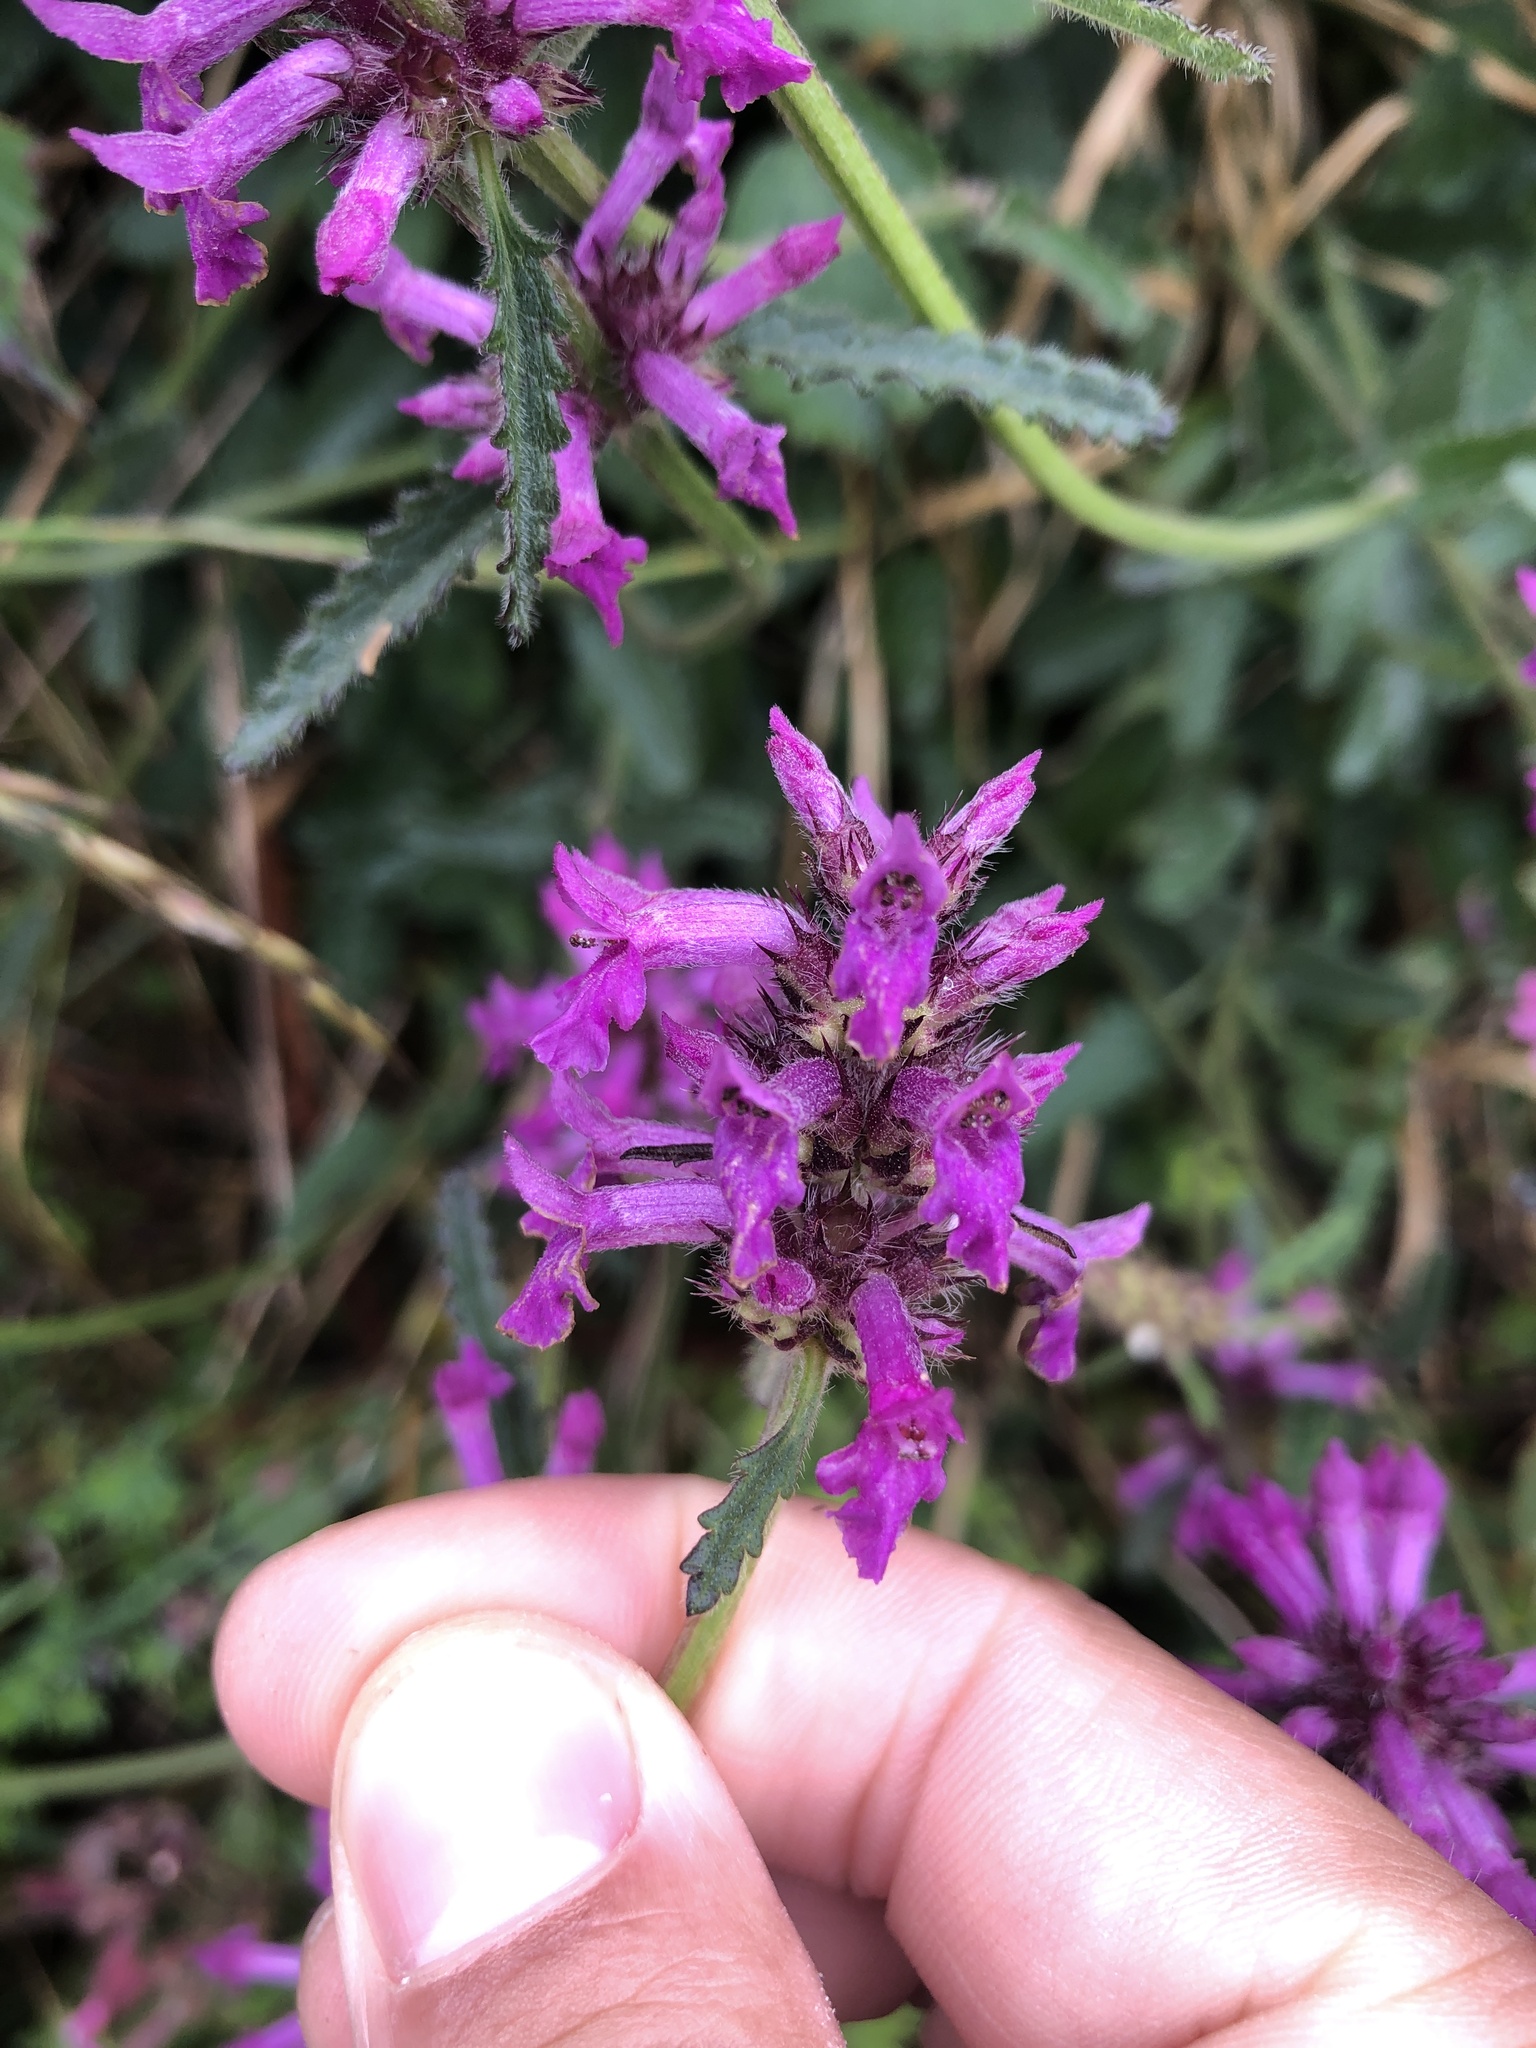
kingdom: Plantae
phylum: Tracheophyta
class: Magnoliopsida
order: Lamiales
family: Lamiaceae
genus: Betonica
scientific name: Betonica officinalis
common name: Bishop's-wort
